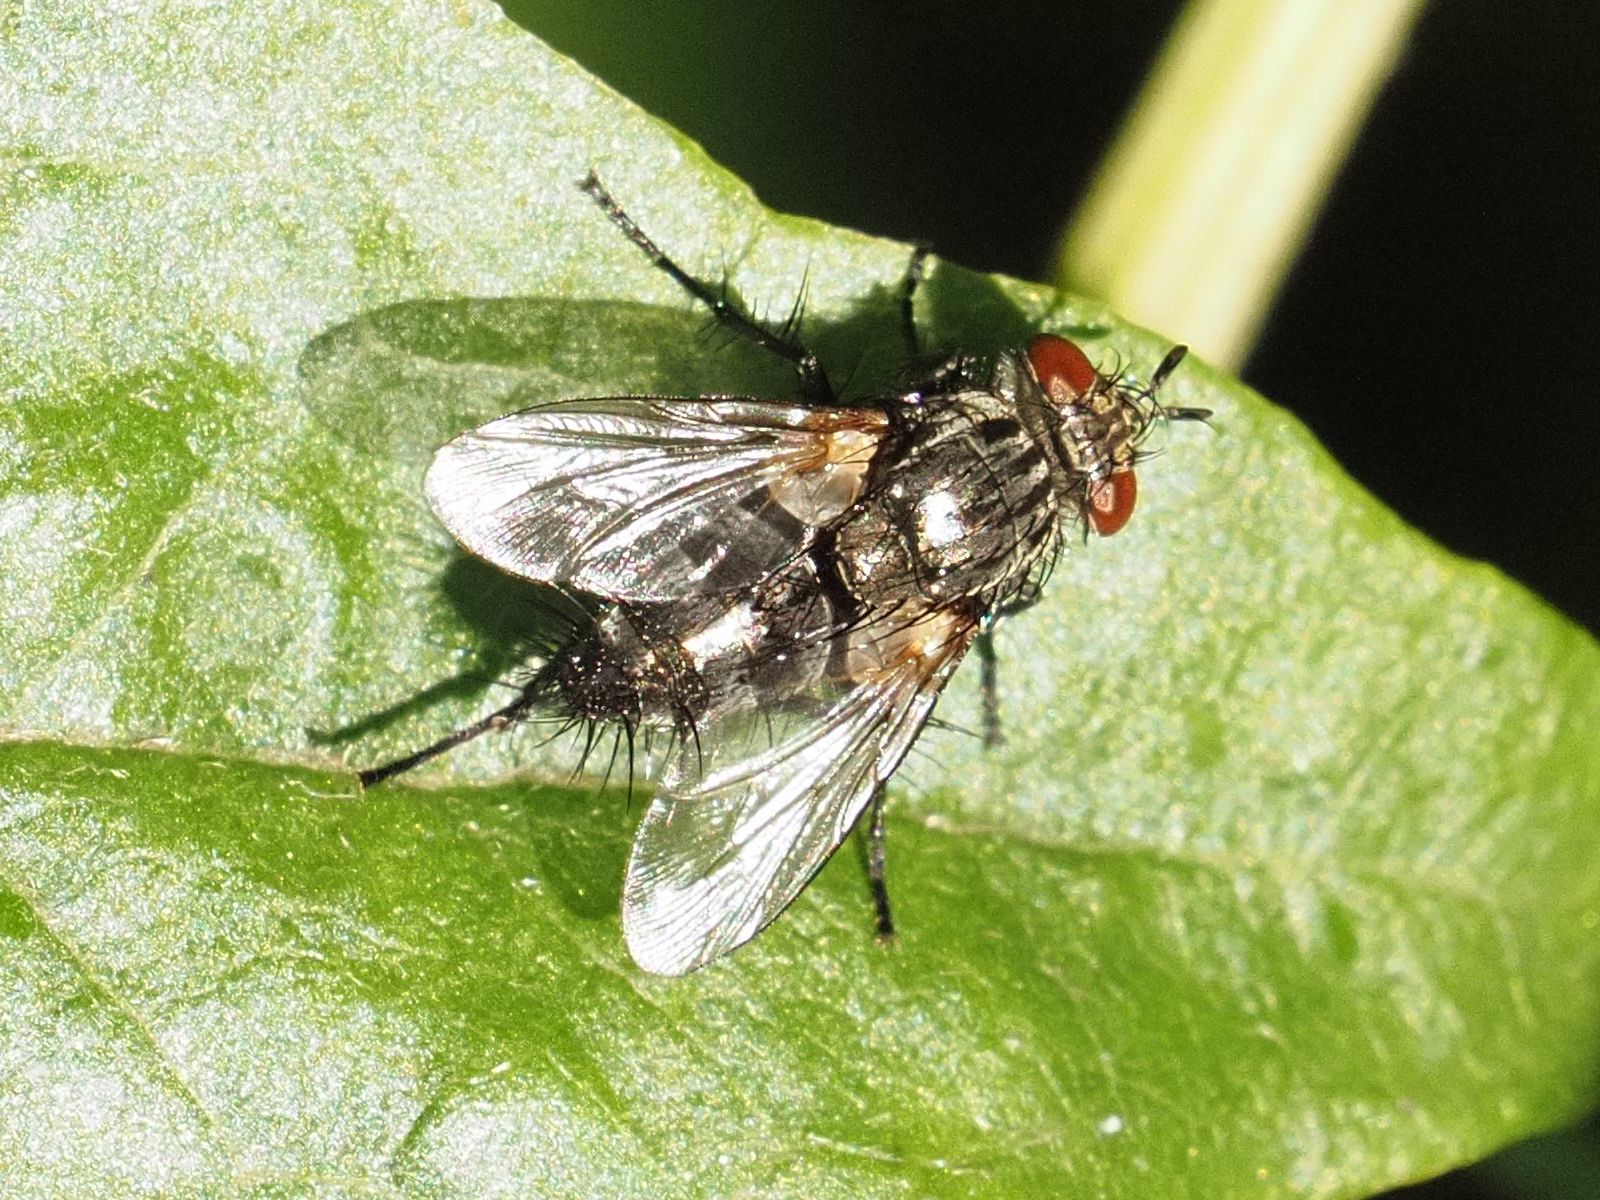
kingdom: Animalia
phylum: Arthropoda
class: Insecta
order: Diptera
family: Tachinidae
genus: Voria
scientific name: Voria ruralis
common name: Parasitic fly
